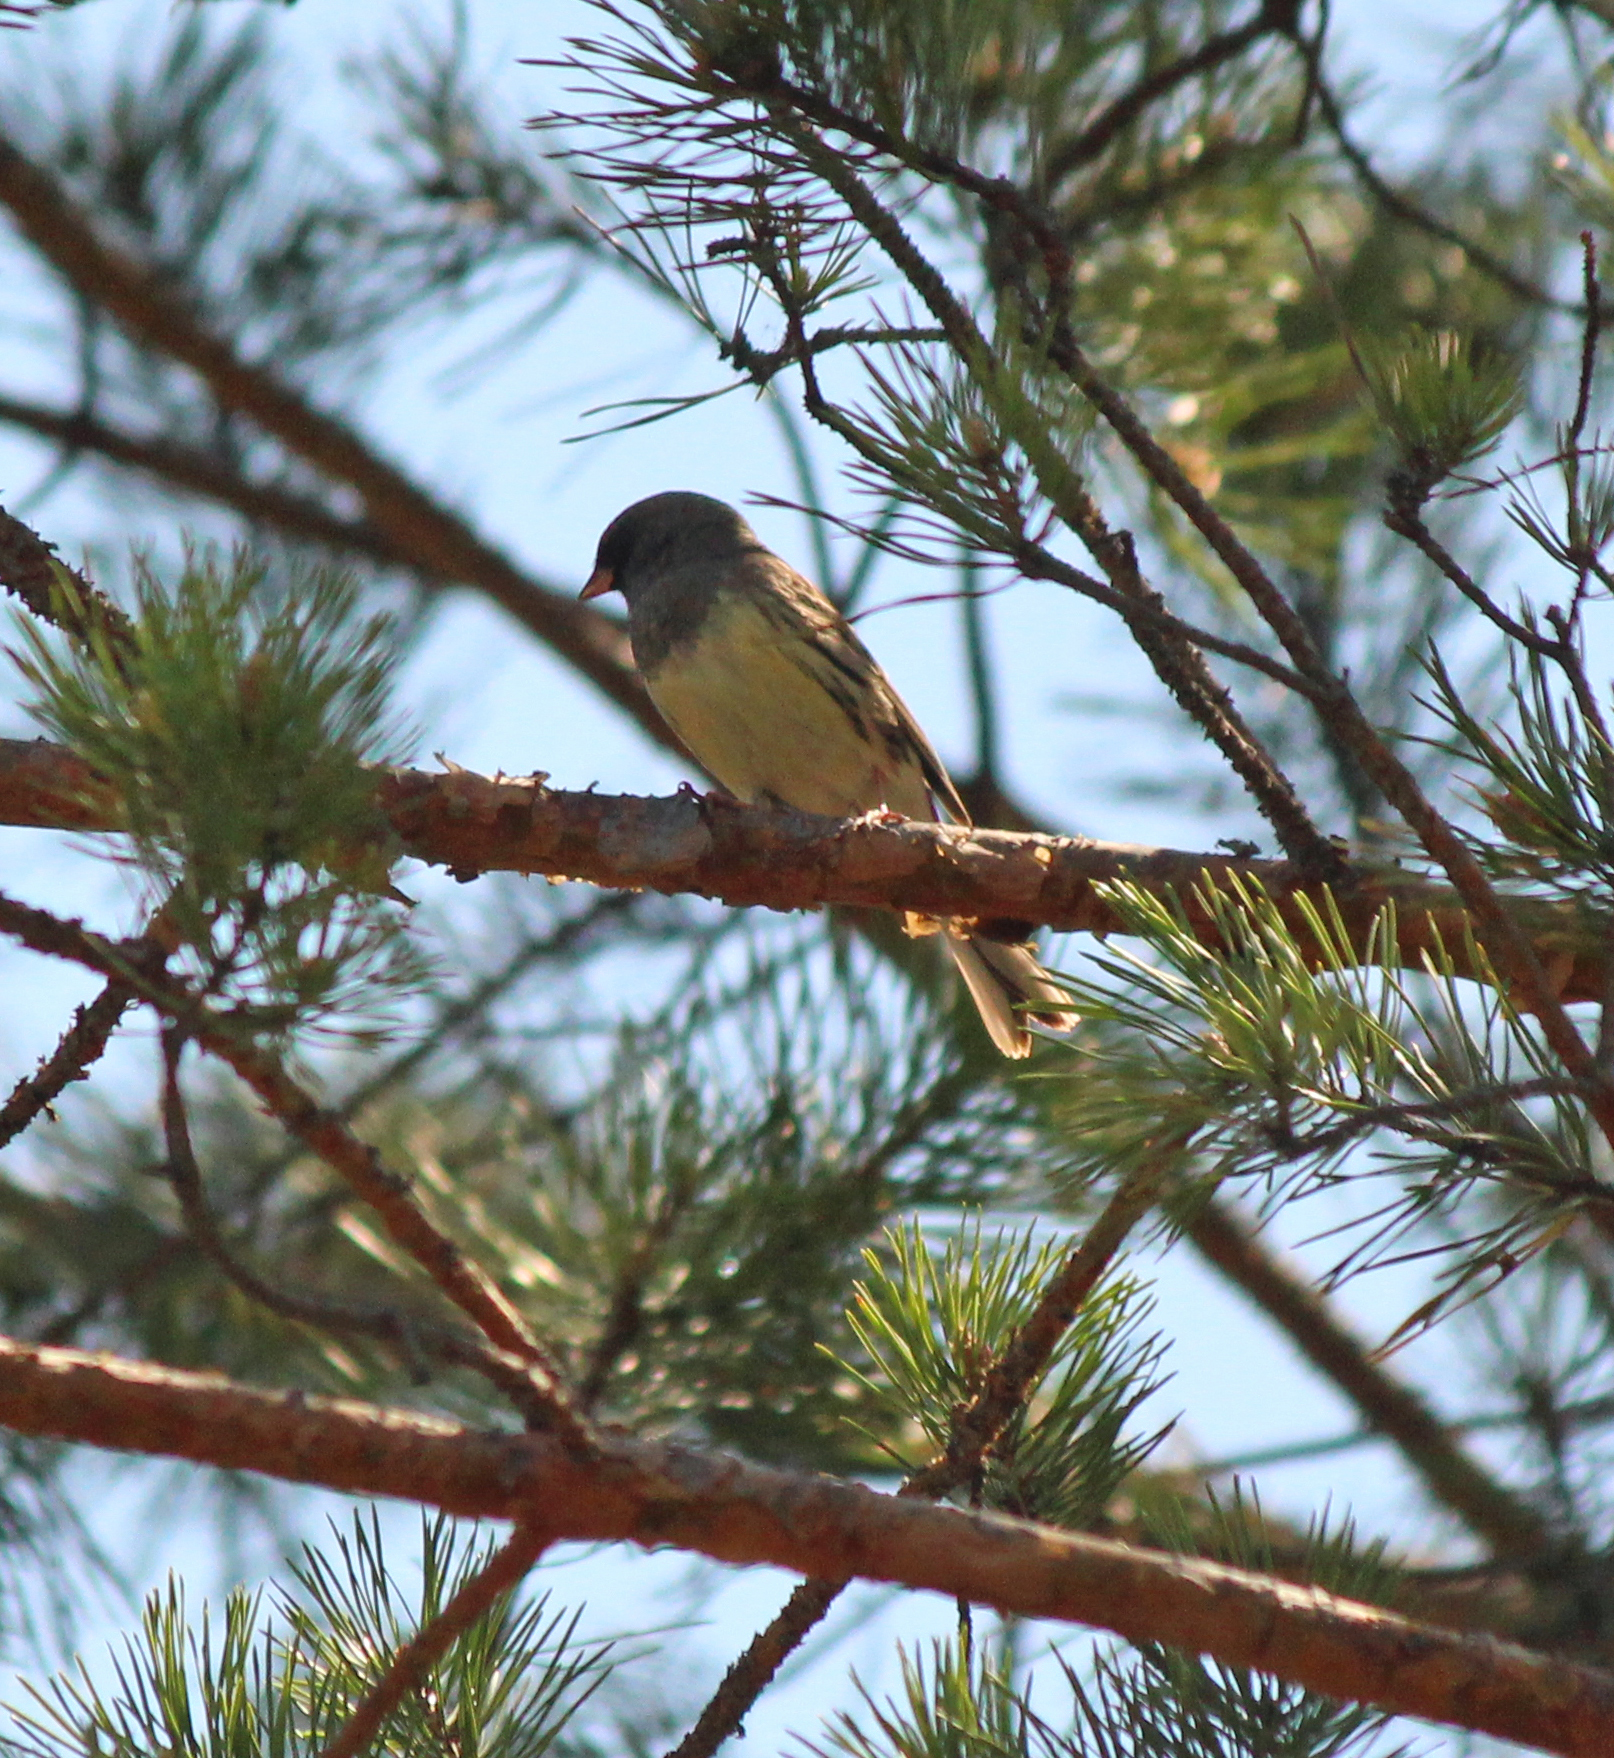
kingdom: Animalia
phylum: Chordata
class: Aves
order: Passeriformes
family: Emberizidae
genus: Emberiza
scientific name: Emberiza spodocephala
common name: Black-faced bunting
